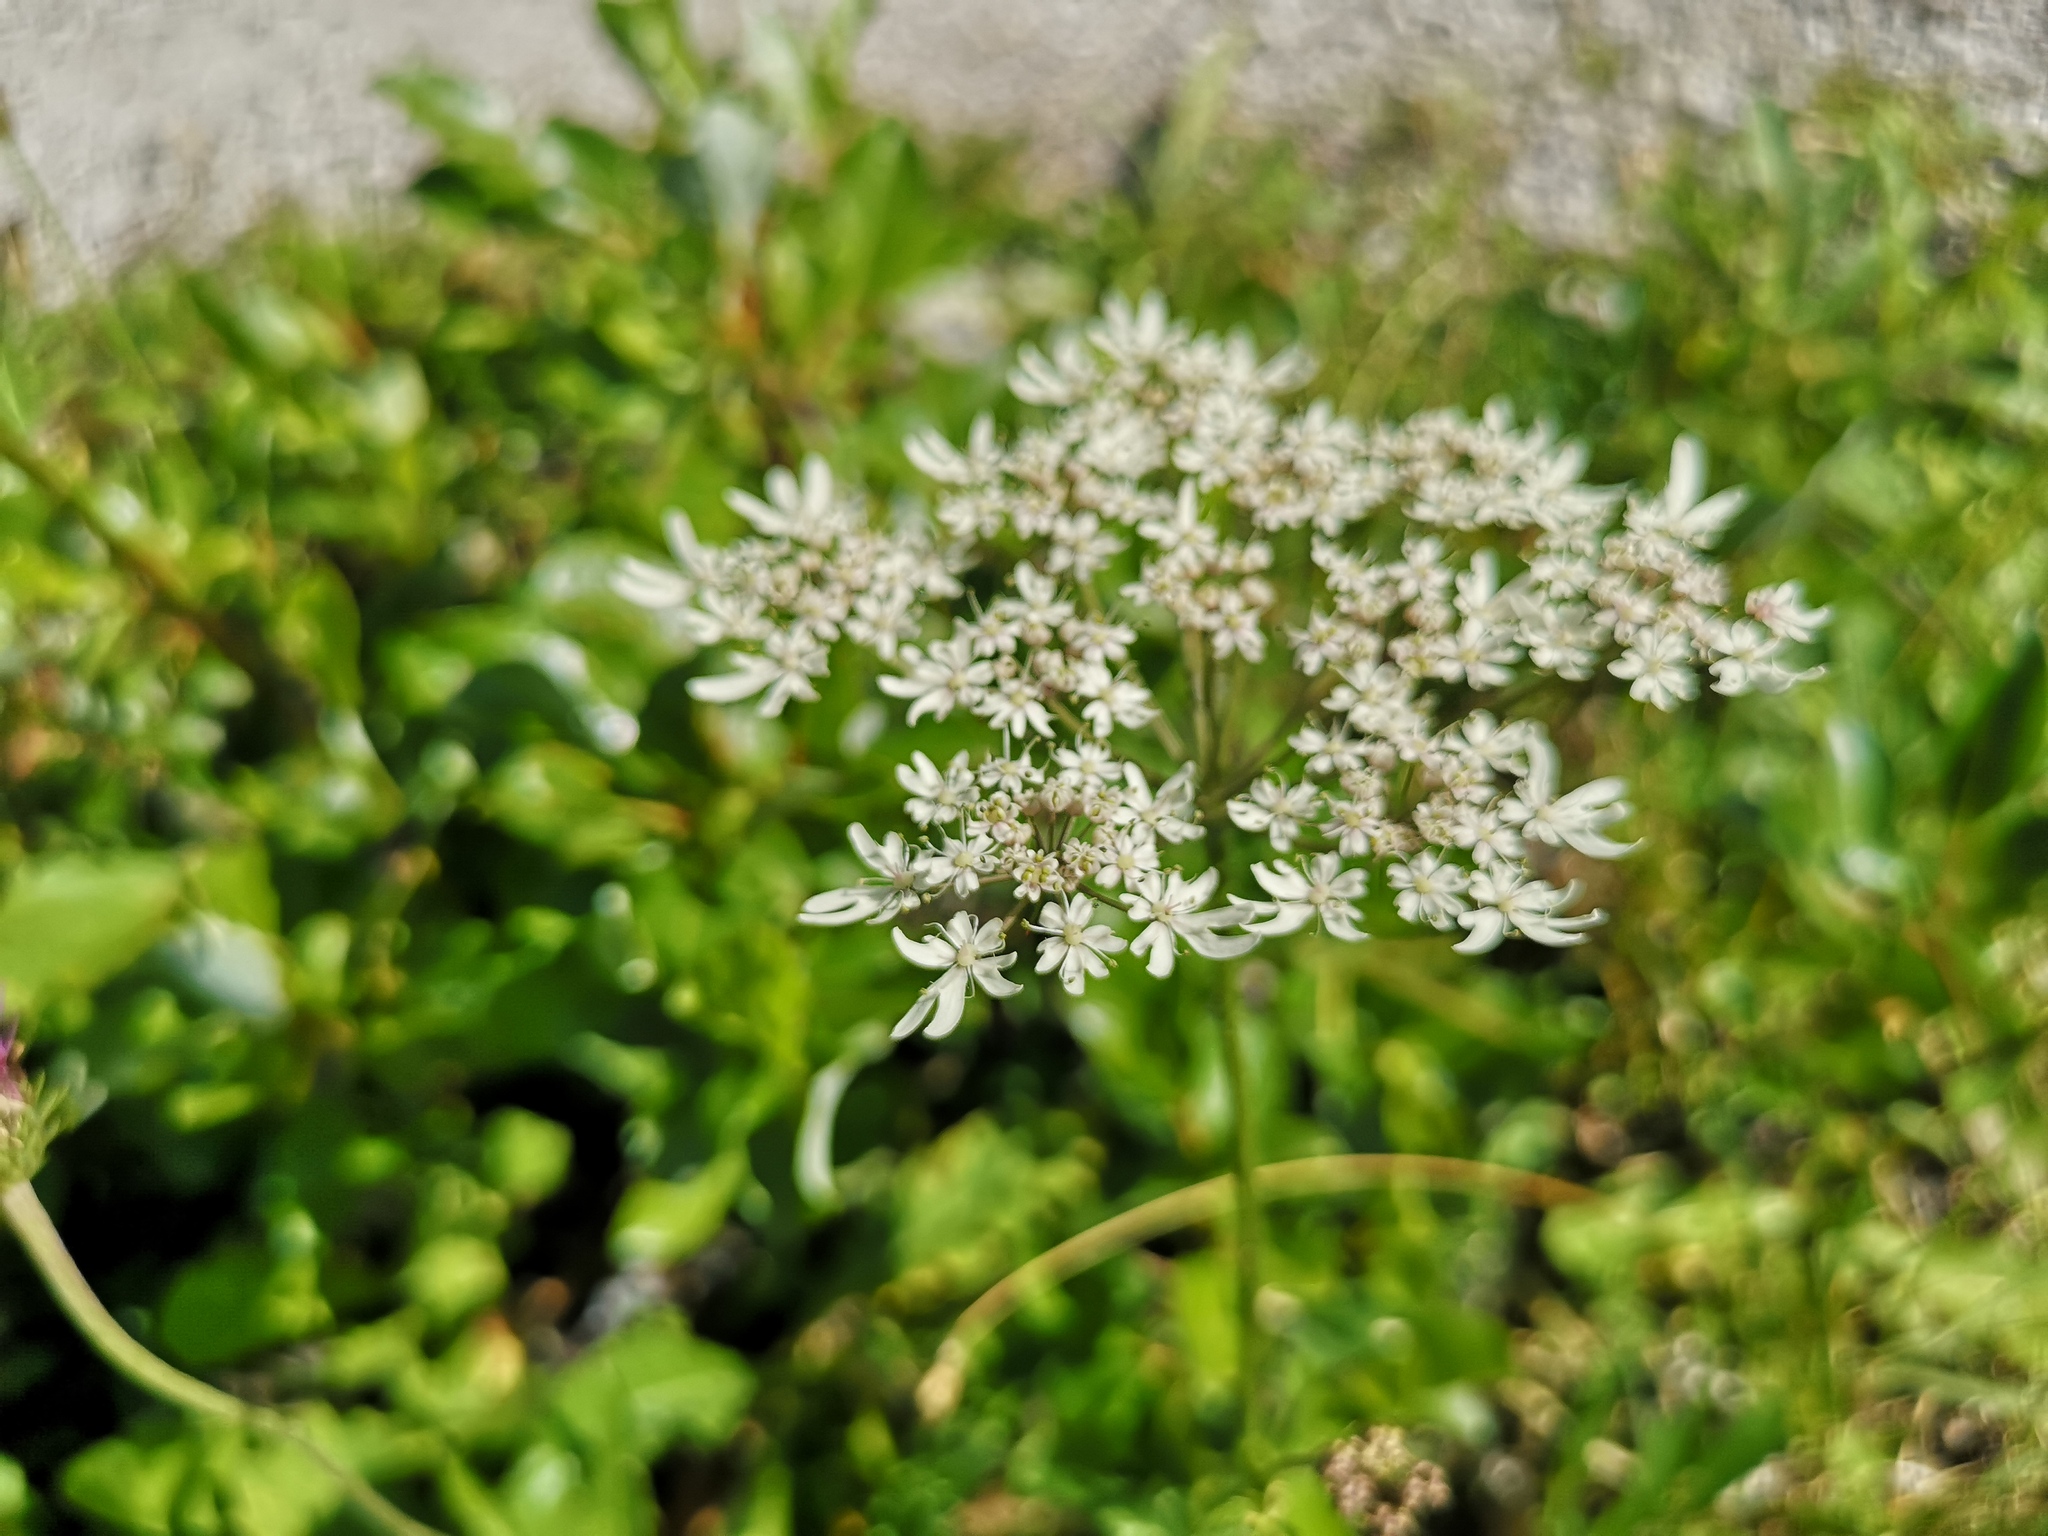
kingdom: Plantae
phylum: Tracheophyta
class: Magnoliopsida
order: Apiales
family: Apiaceae
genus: Heracleum
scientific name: Heracleum austriacum
